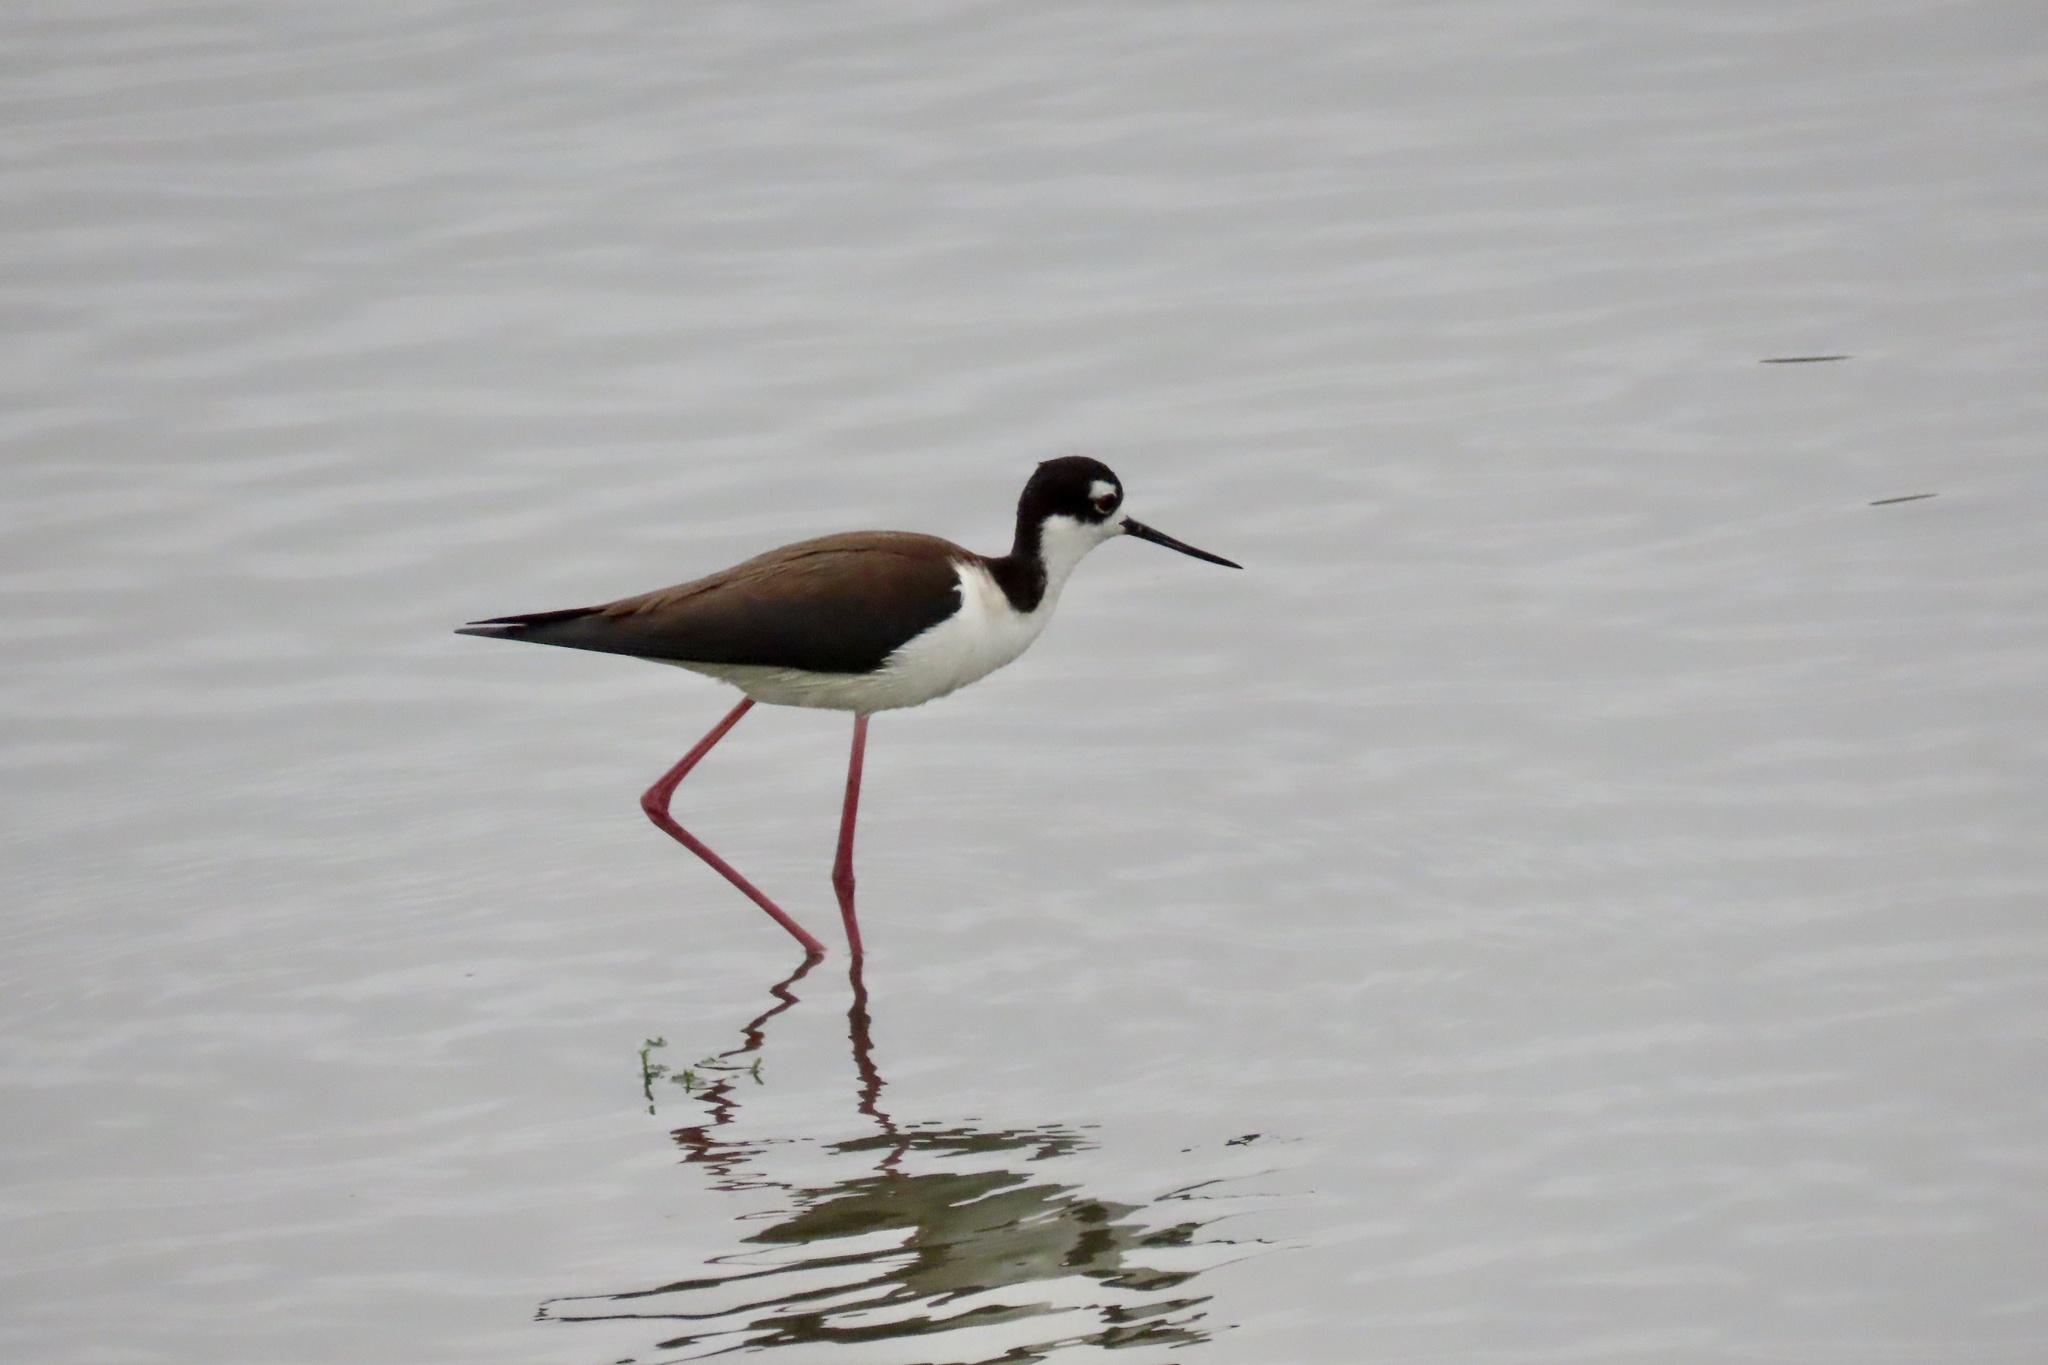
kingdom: Animalia
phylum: Chordata
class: Aves
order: Charadriiformes
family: Recurvirostridae
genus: Himantopus
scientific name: Himantopus mexicanus
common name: Black-necked stilt
